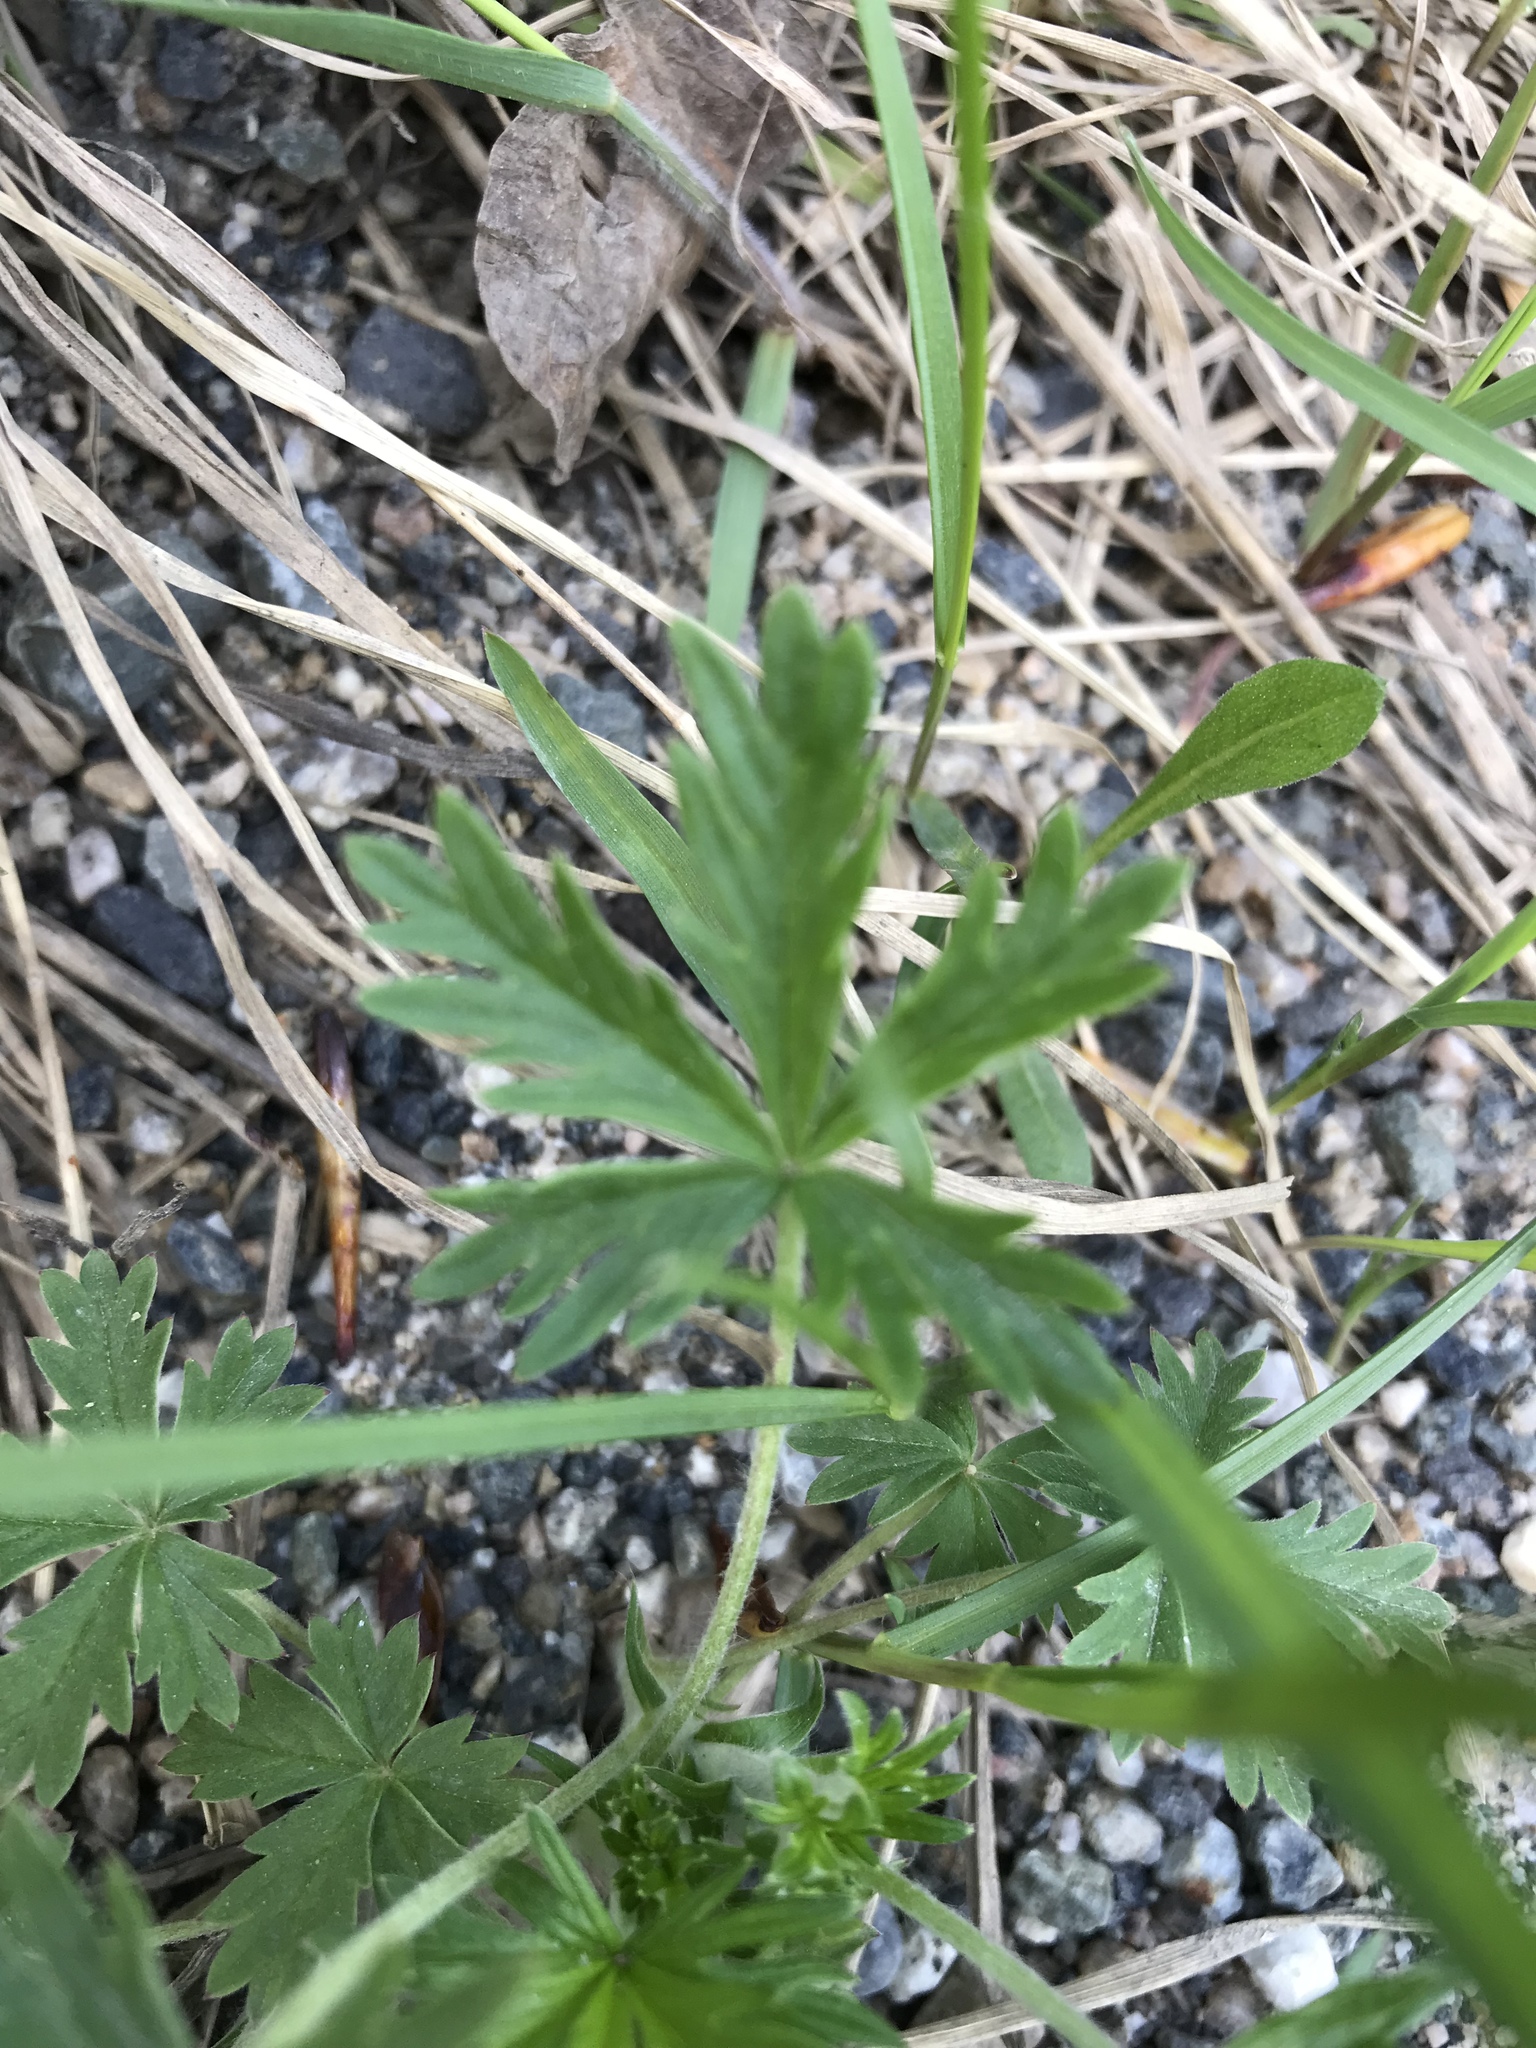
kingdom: Plantae
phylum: Tracheophyta
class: Magnoliopsida
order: Rosales
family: Rosaceae
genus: Potentilla
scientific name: Potentilla gracilis
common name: Graceful cinquefoil
